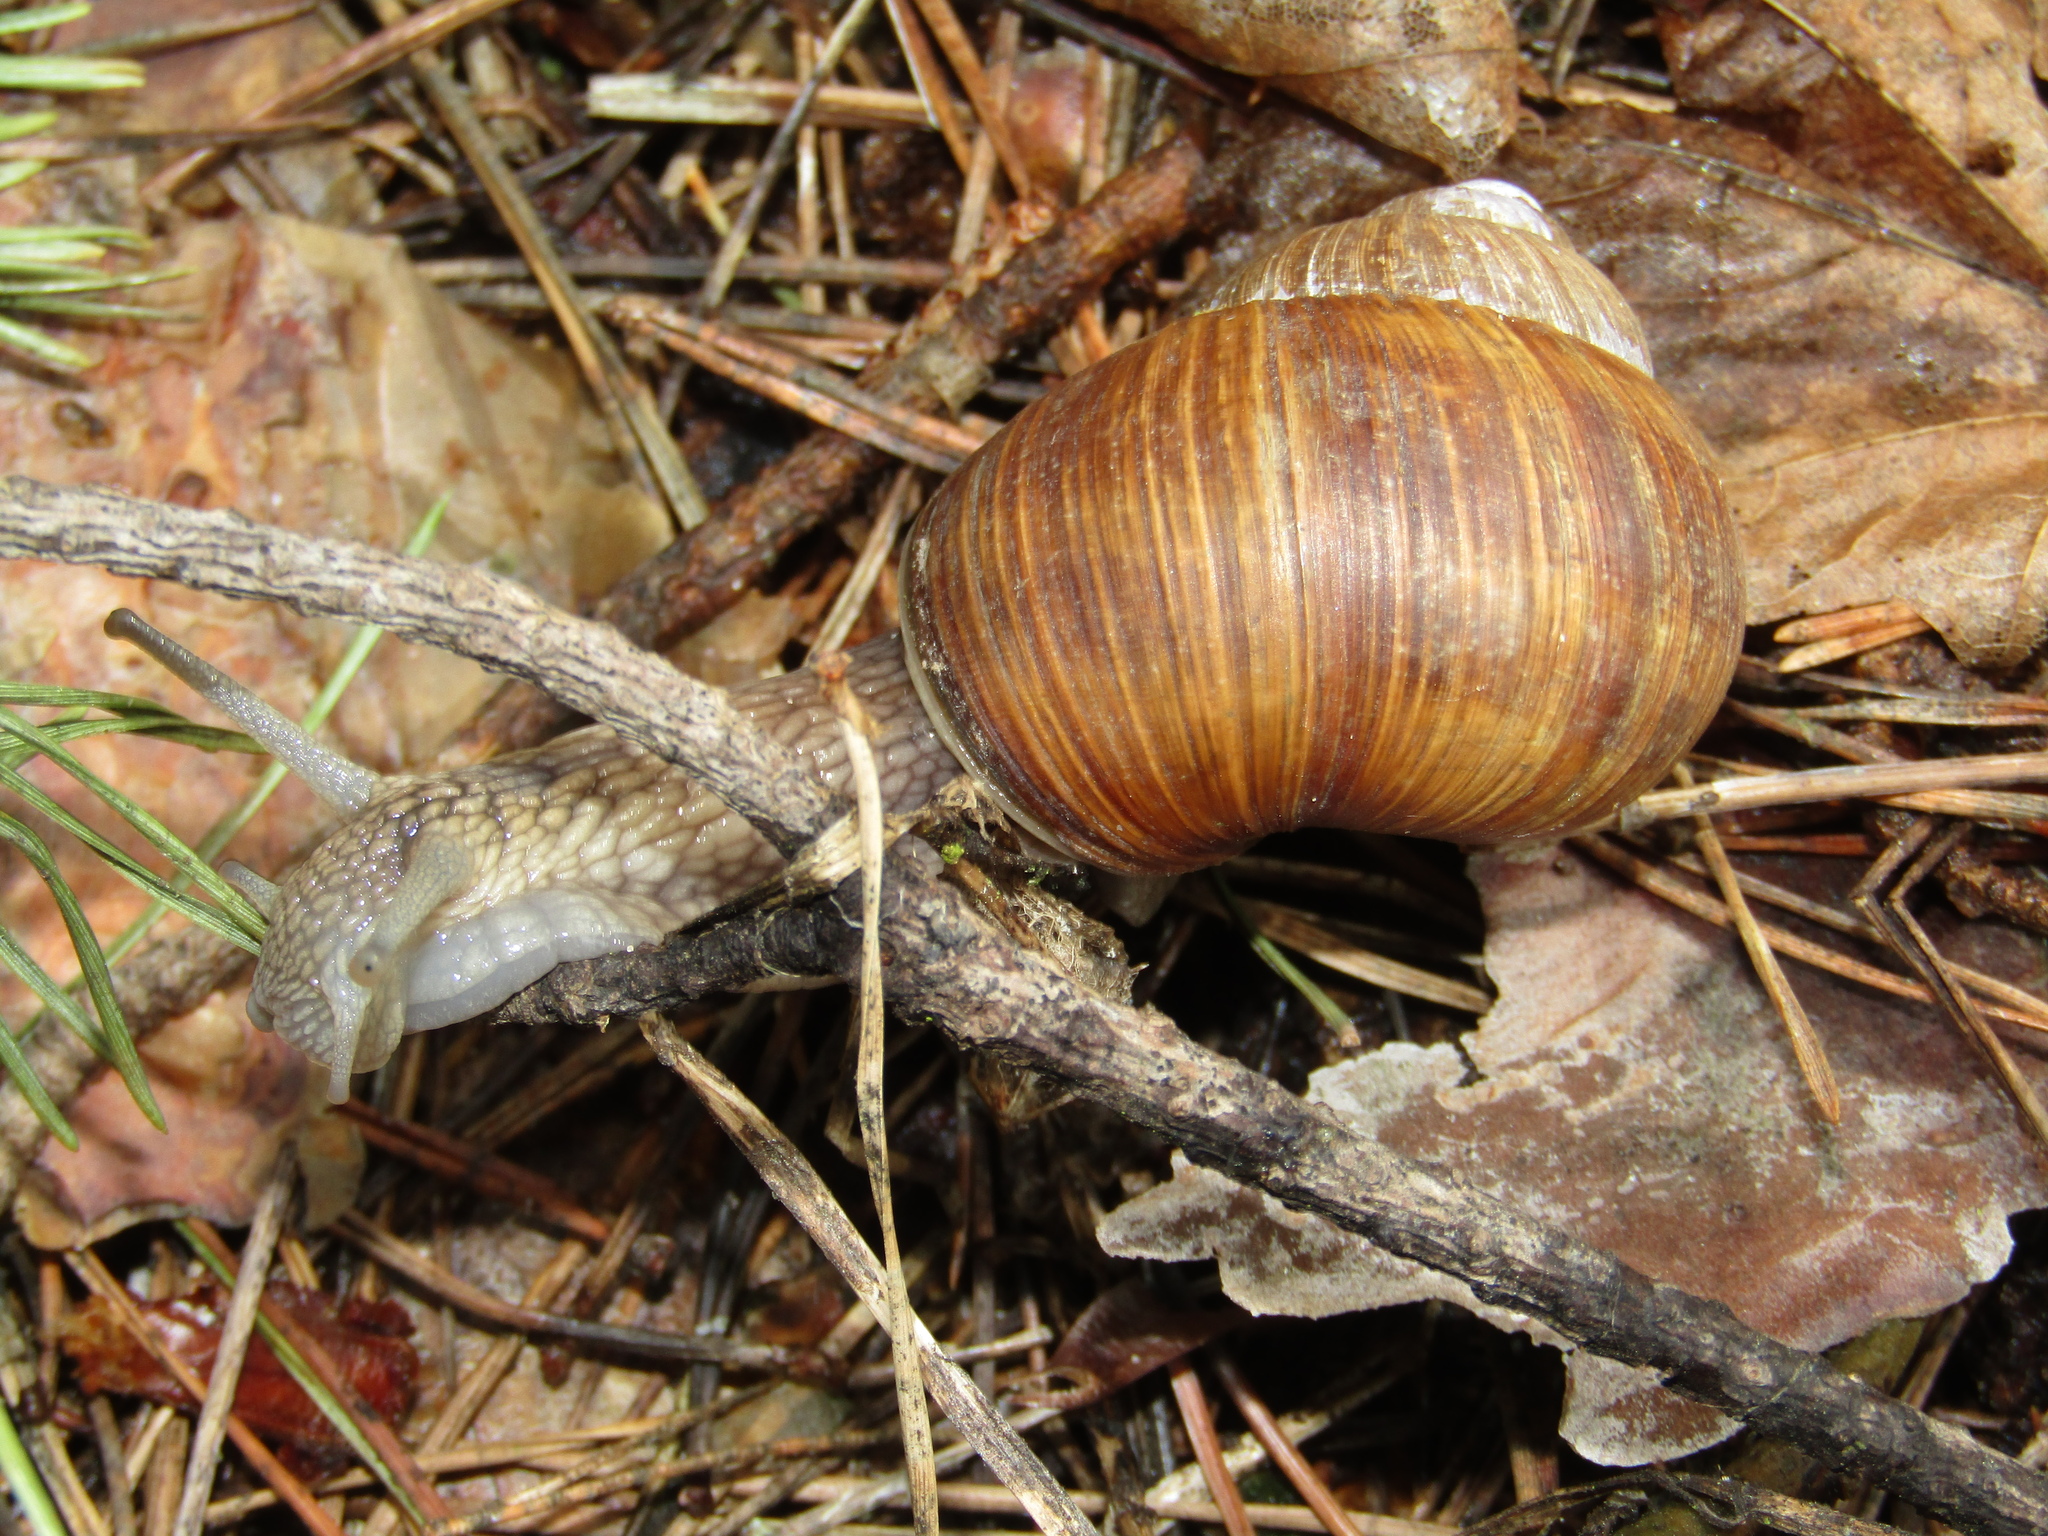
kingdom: Animalia
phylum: Mollusca
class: Gastropoda
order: Stylommatophora
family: Helicidae
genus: Helix
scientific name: Helix pomatia
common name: Roman snail
